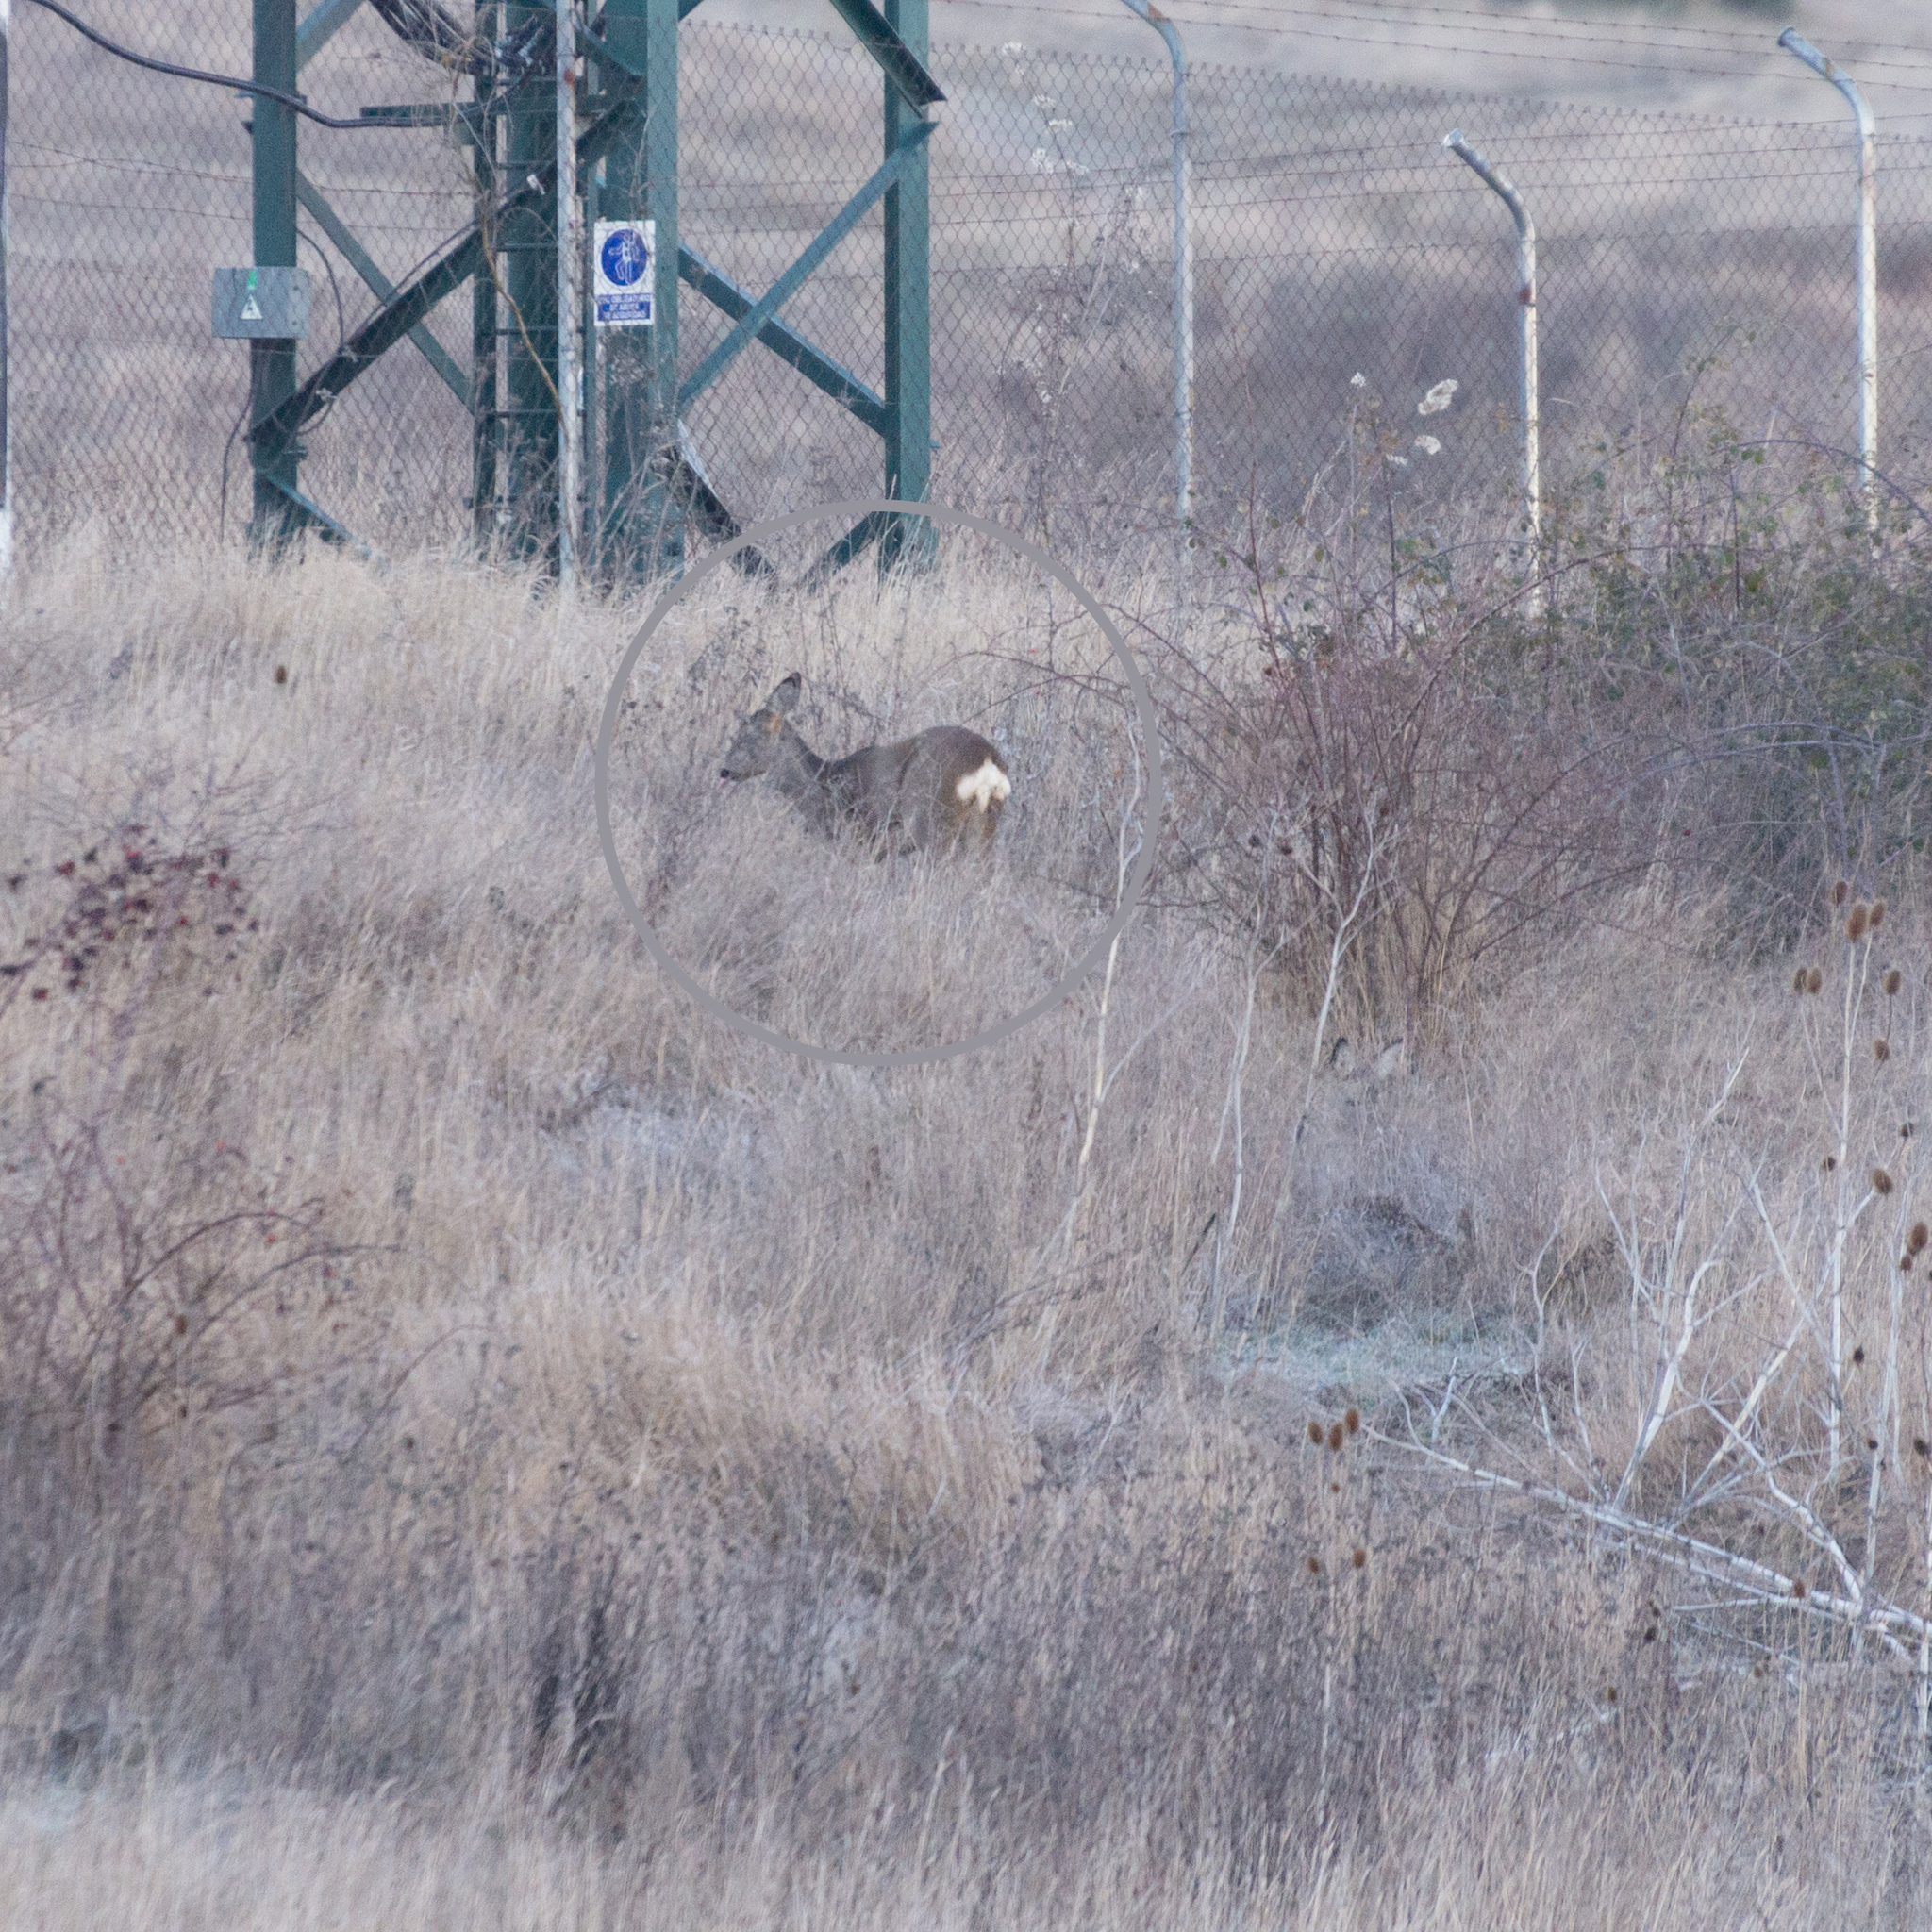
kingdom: Animalia
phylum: Chordata
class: Mammalia
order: Artiodactyla
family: Cervidae
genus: Capreolus
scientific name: Capreolus capreolus
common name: Western roe deer
